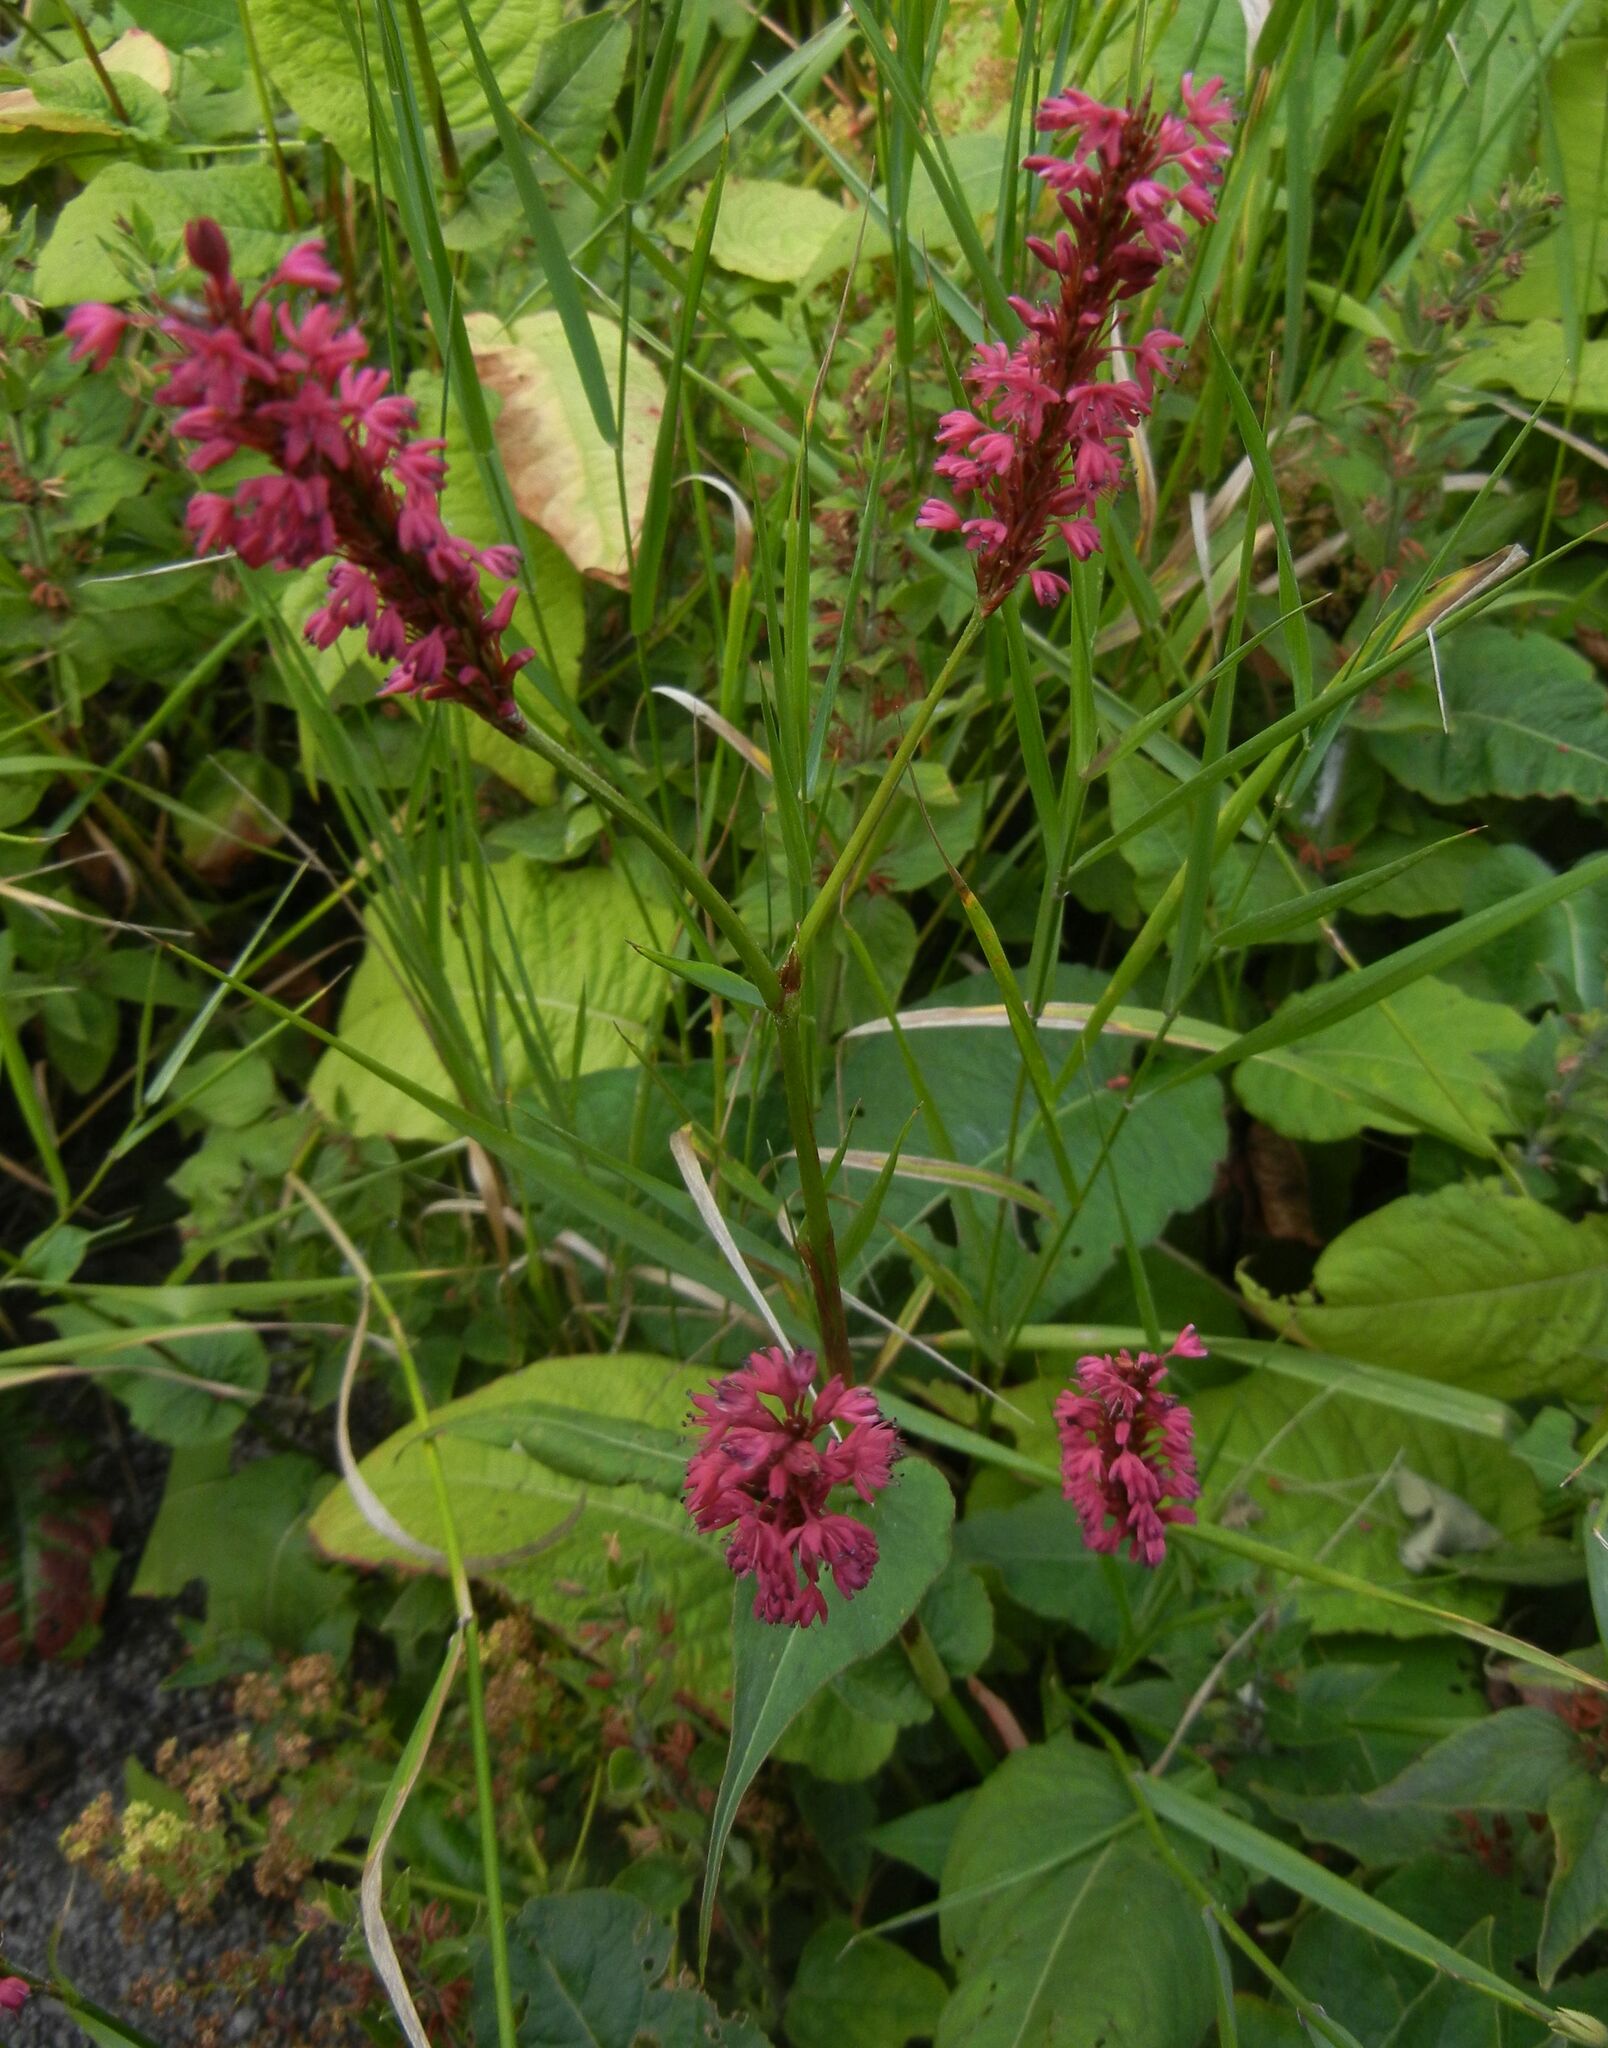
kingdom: Plantae
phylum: Tracheophyta
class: Magnoliopsida
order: Caryophyllales
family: Polygonaceae
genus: Bistorta
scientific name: Bistorta amplexicaulis
